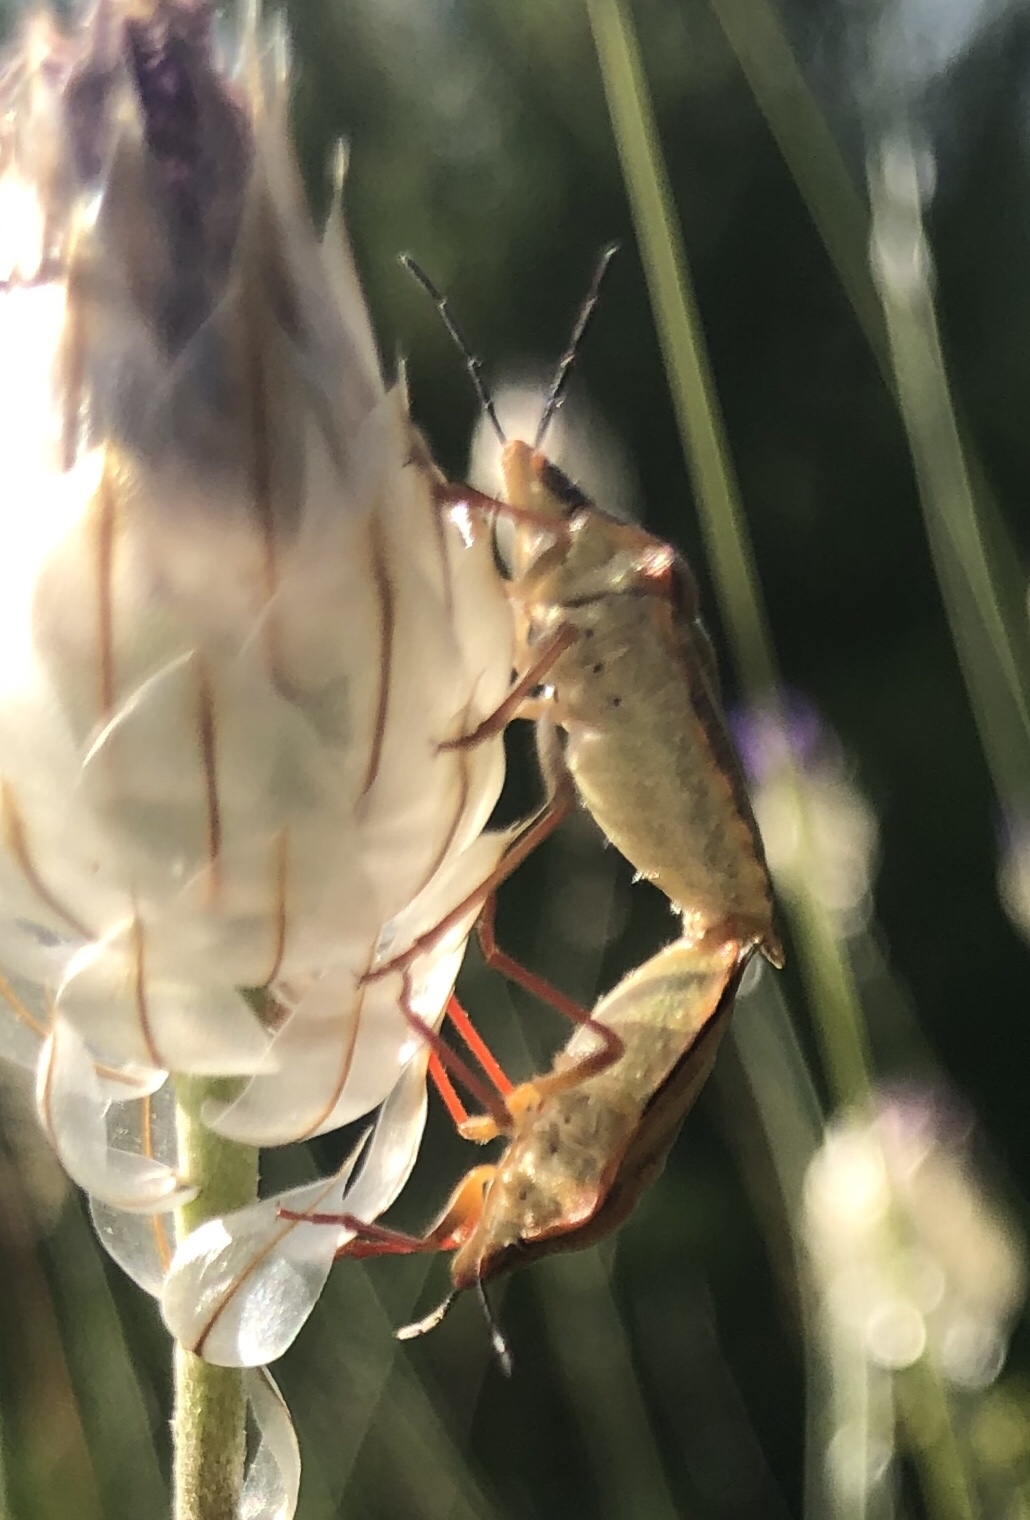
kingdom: Animalia
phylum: Arthropoda
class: Insecta
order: Hemiptera
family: Pentatomidae
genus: Carpocoris
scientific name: Carpocoris purpureipennis
